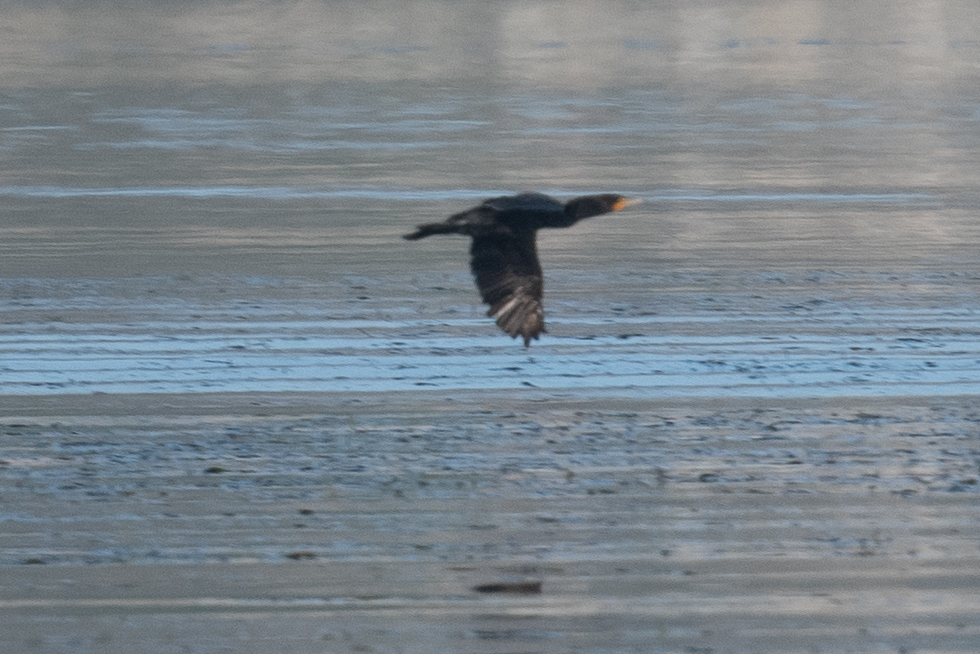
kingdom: Animalia
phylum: Chordata
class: Aves
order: Suliformes
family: Phalacrocoracidae
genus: Phalacrocorax
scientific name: Phalacrocorax auritus
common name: Double-crested cormorant
